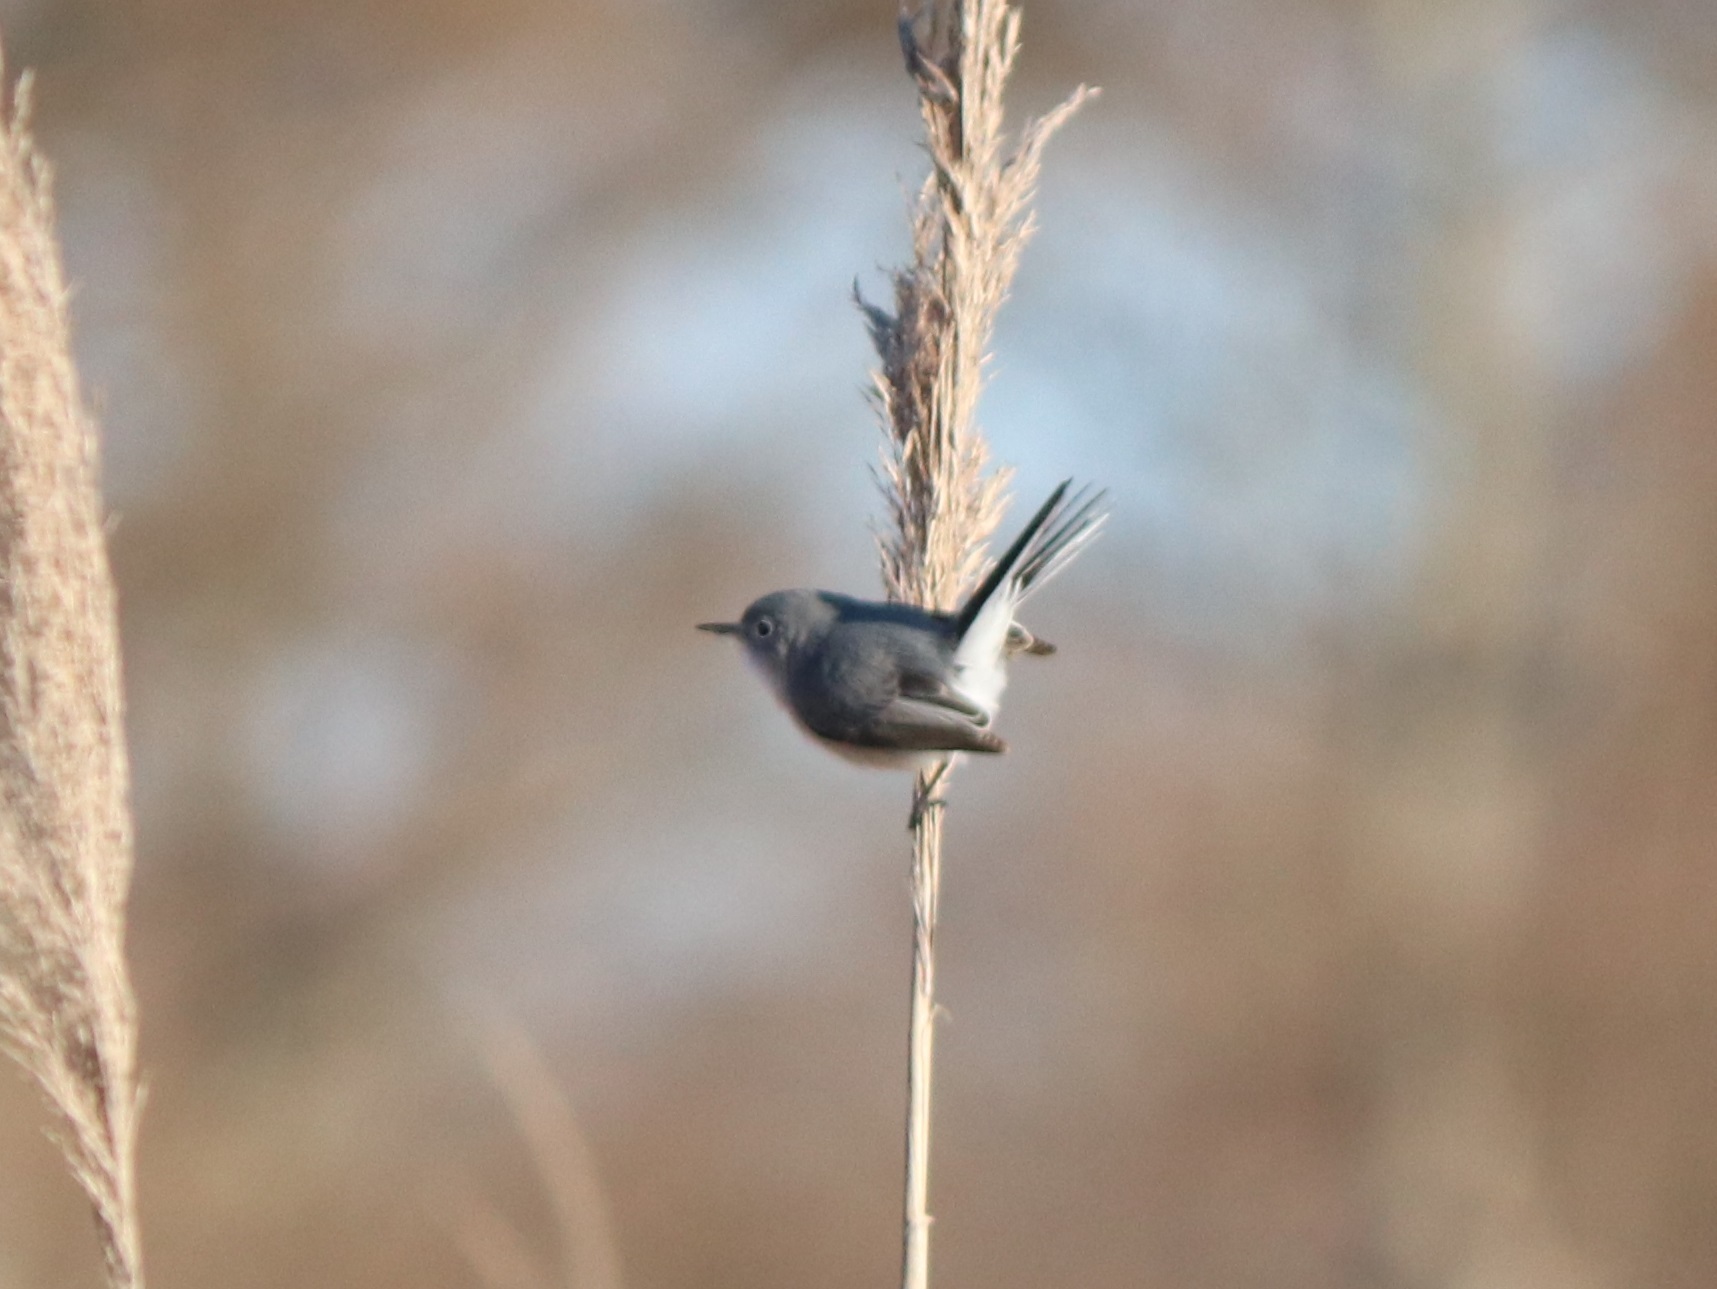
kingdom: Animalia
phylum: Chordata
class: Aves
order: Passeriformes
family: Polioptilidae
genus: Polioptila
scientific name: Polioptila caerulea
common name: Blue-gray gnatcatcher
